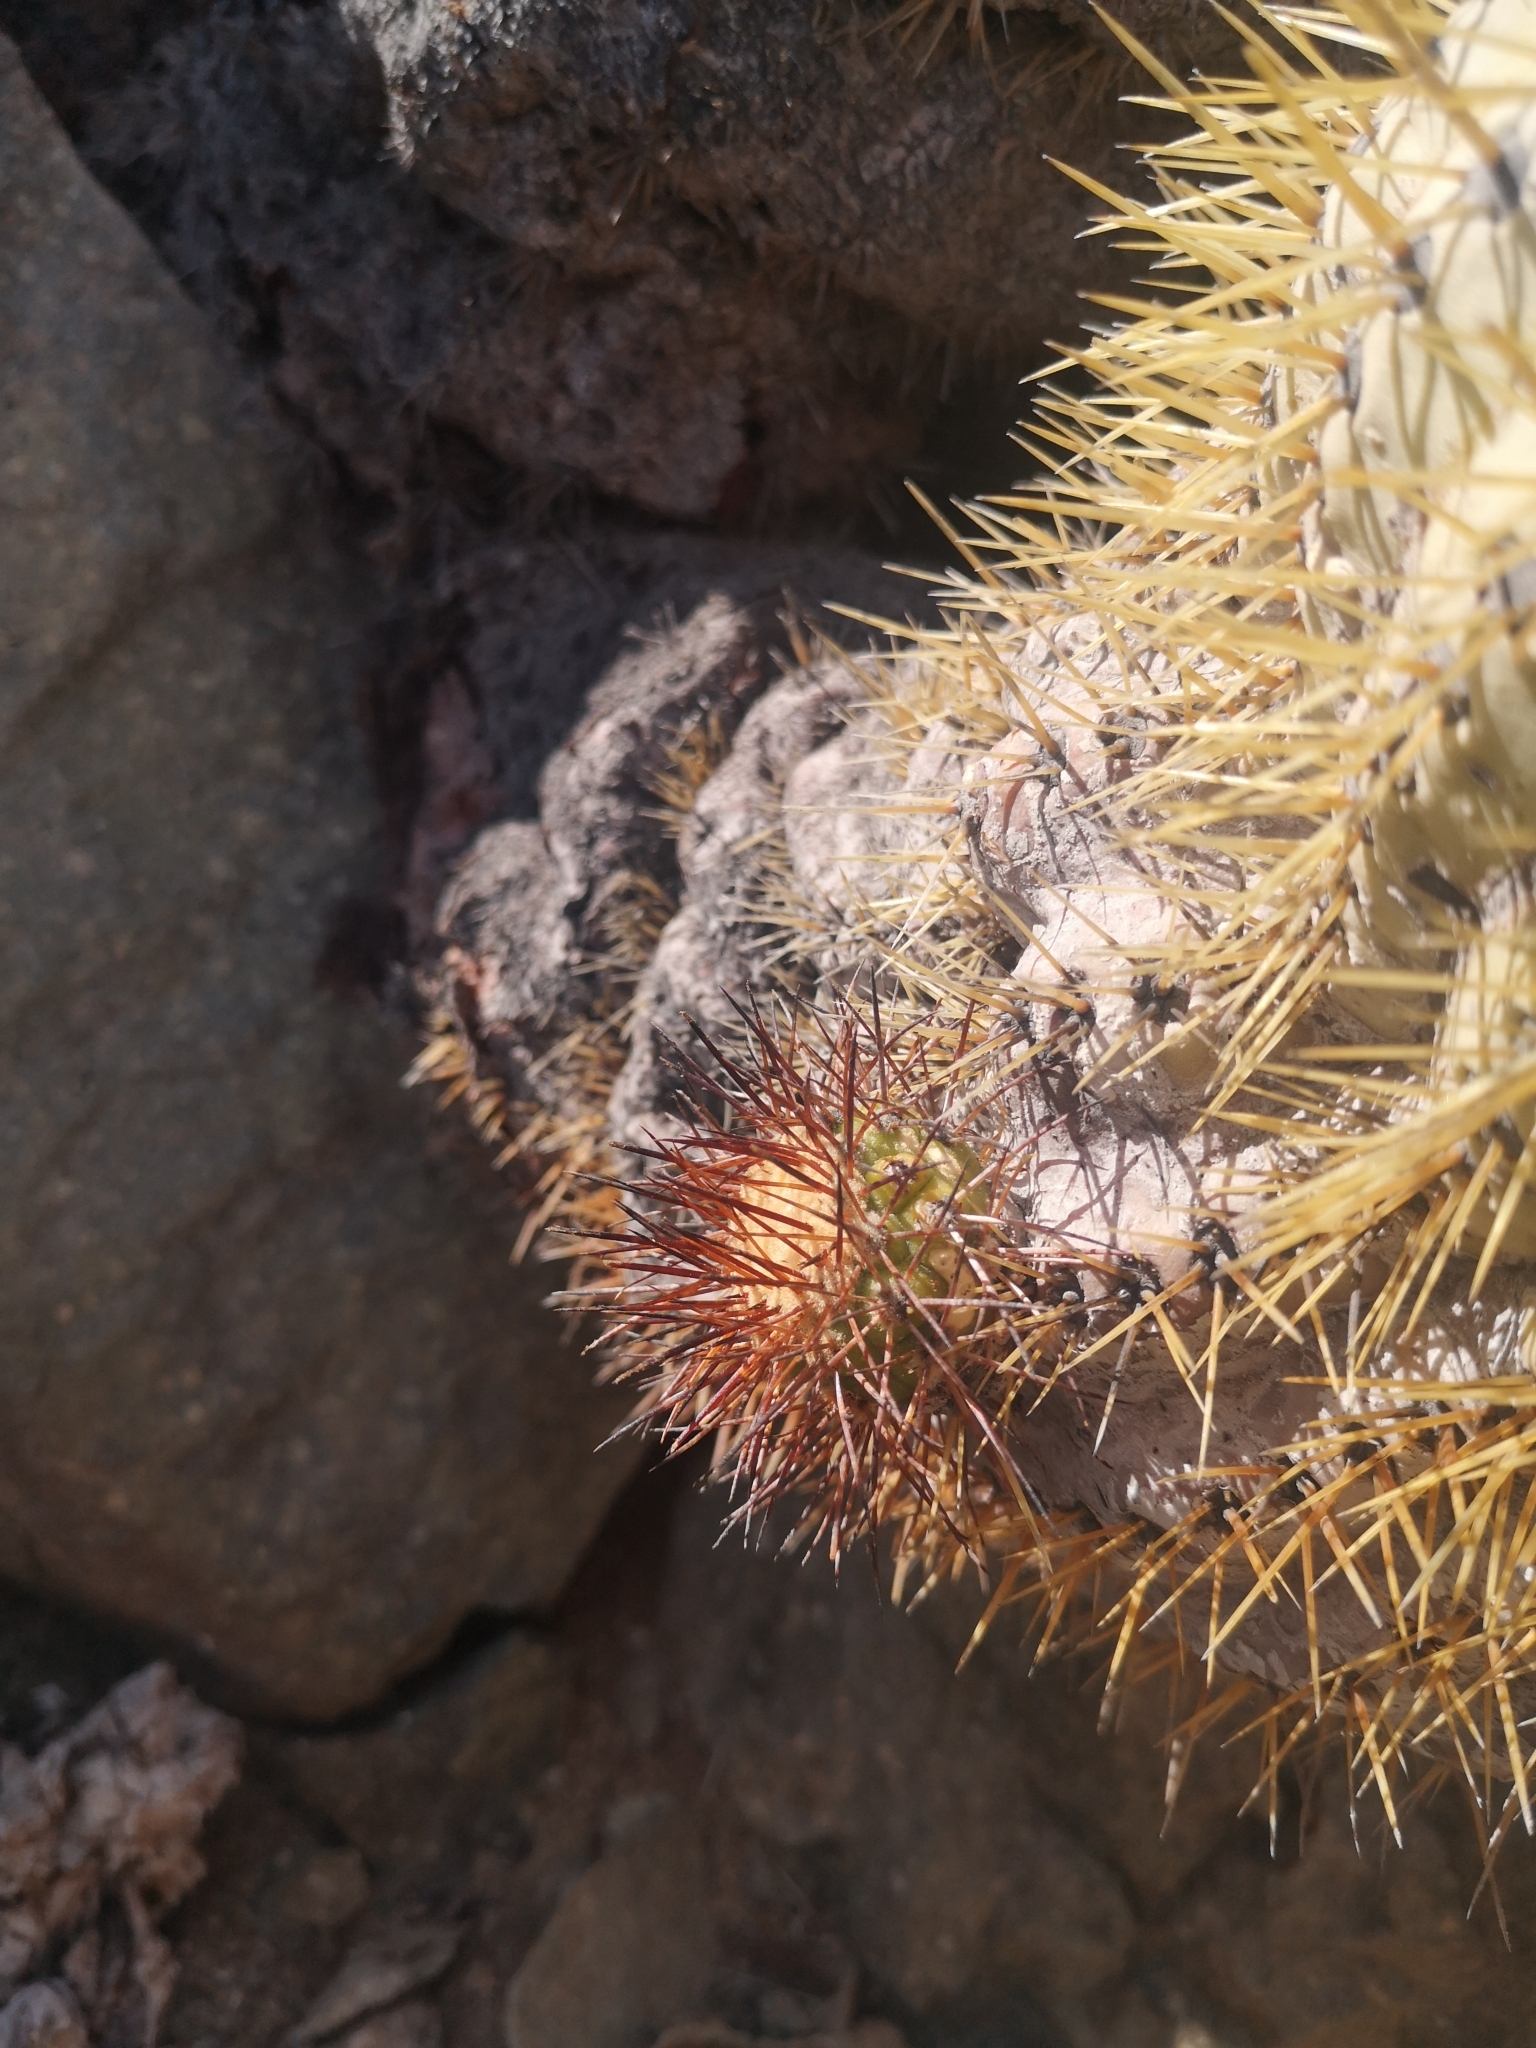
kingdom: Plantae
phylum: Tracheophyta
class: Magnoliopsida
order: Caryophyllales
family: Cactaceae
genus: Copiapoa
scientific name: Copiapoa longistaminea
